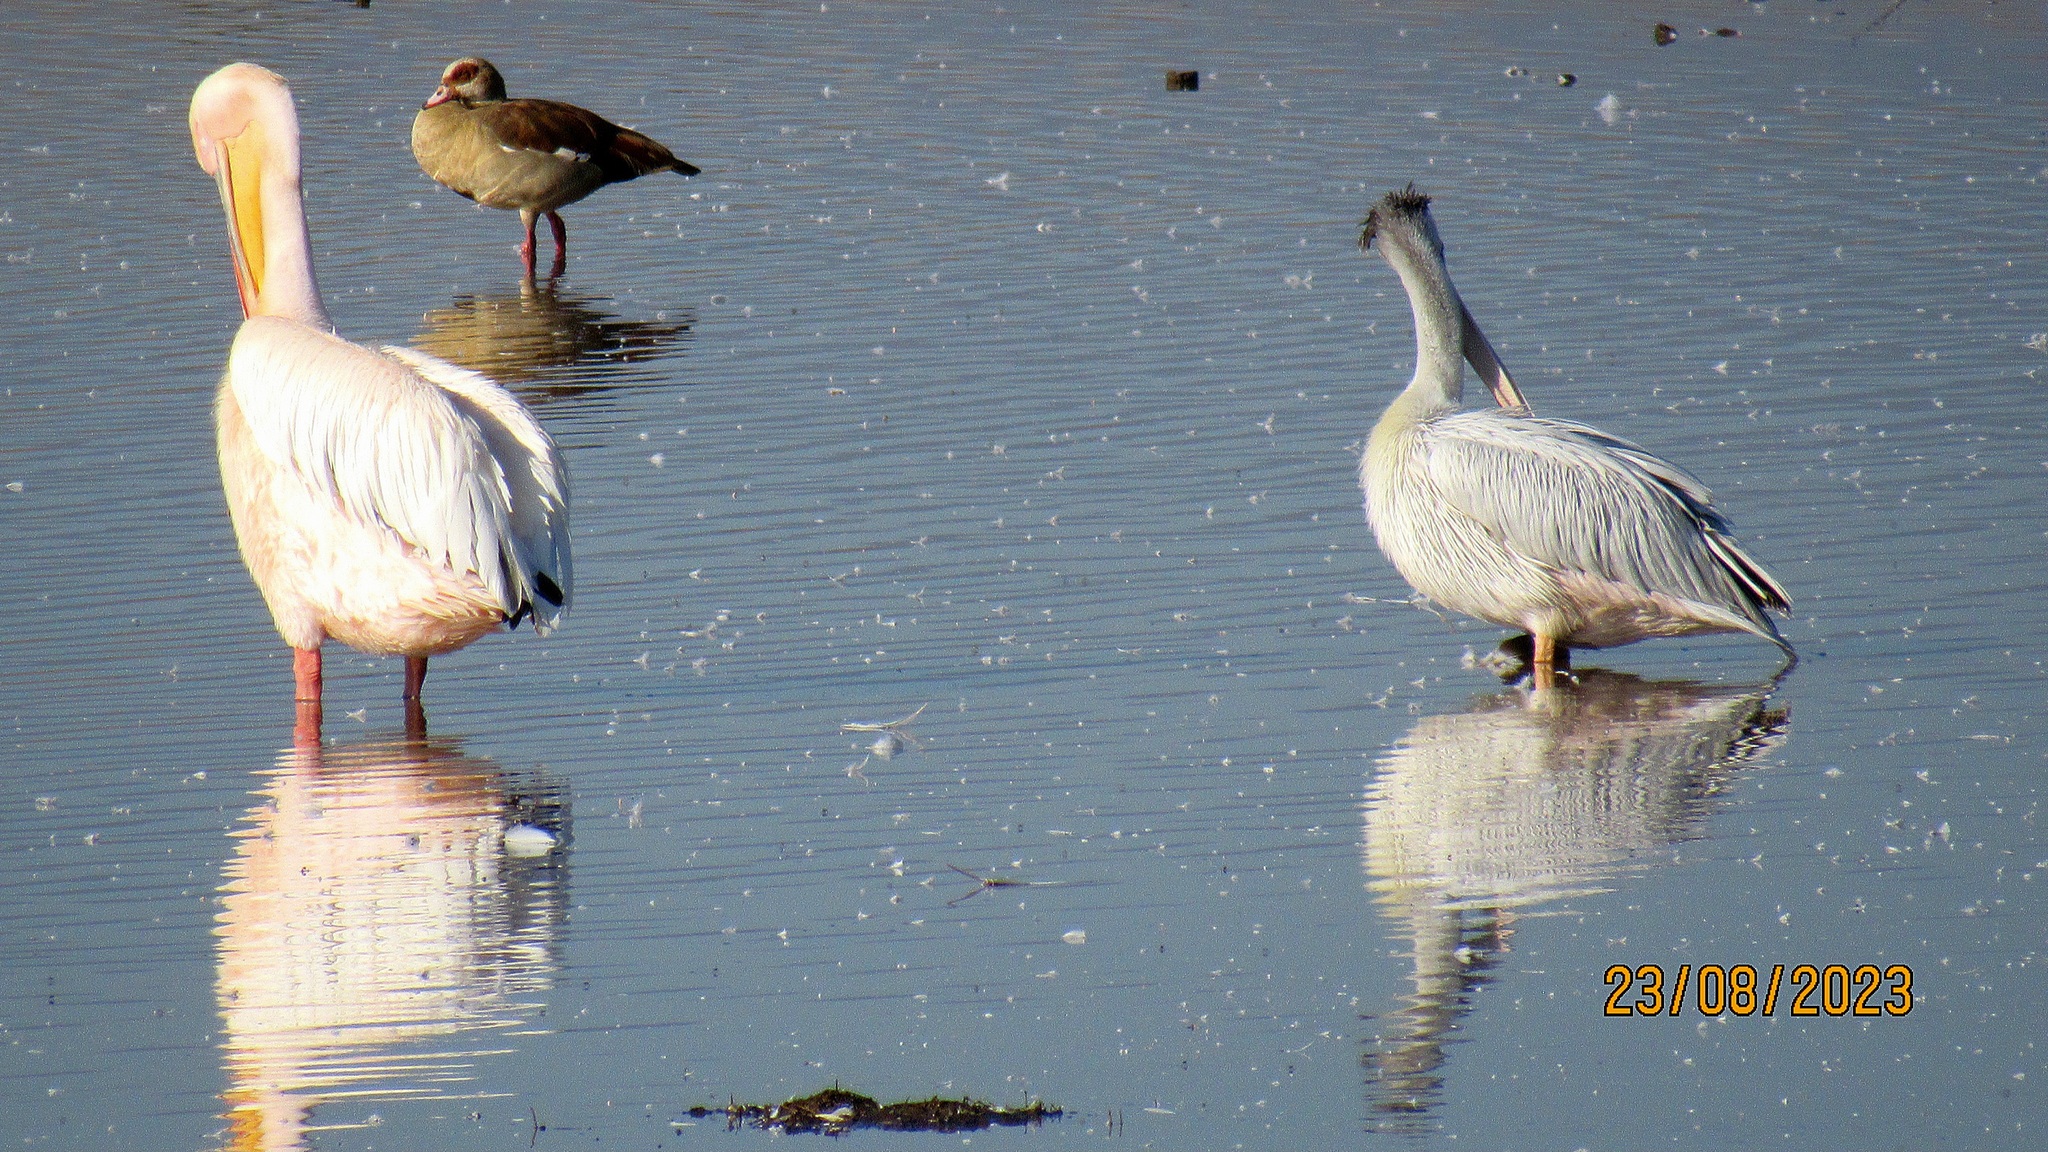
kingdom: Animalia
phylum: Chordata
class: Aves
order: Pelecaniformes
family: Pelecanidae
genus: Pelecanus
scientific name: Pelecanus onocrotalus
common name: Great white pelican
